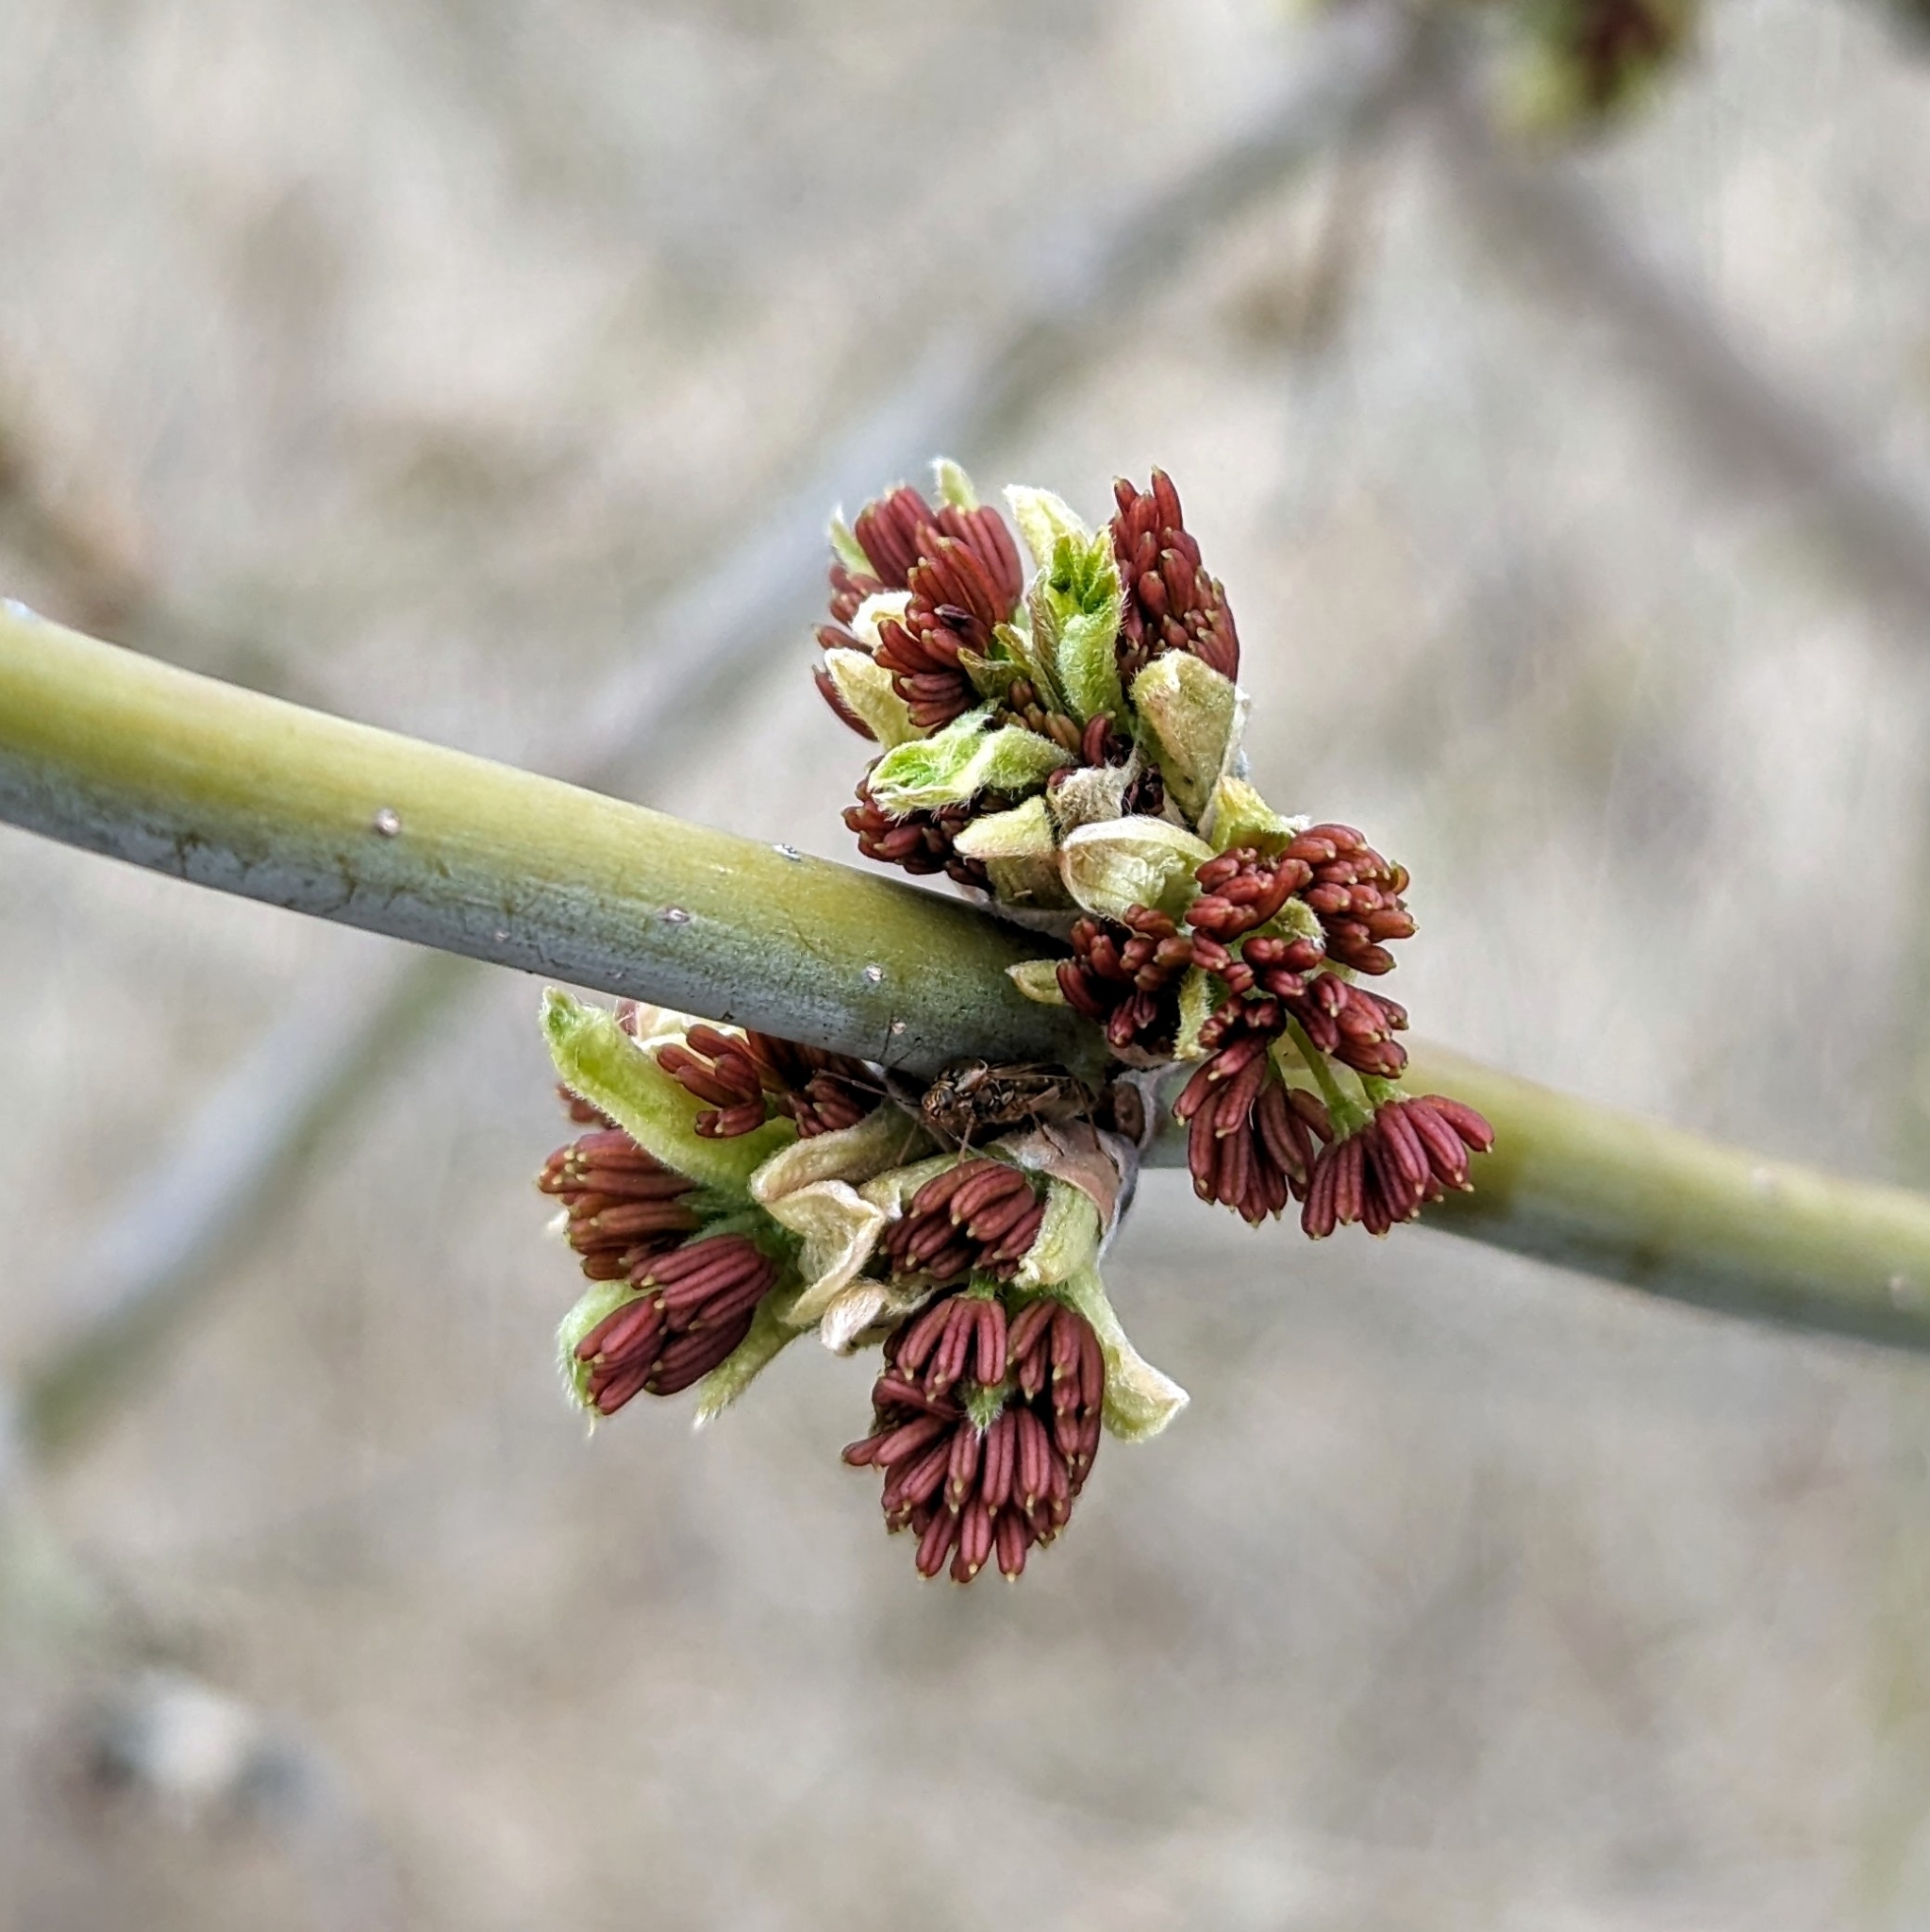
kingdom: Plantae
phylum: Tracheophyta
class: Magnoliopsida
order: Sapindales
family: Sapindaceae
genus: Acer
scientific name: Acer negundo
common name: Ashleaf maple
